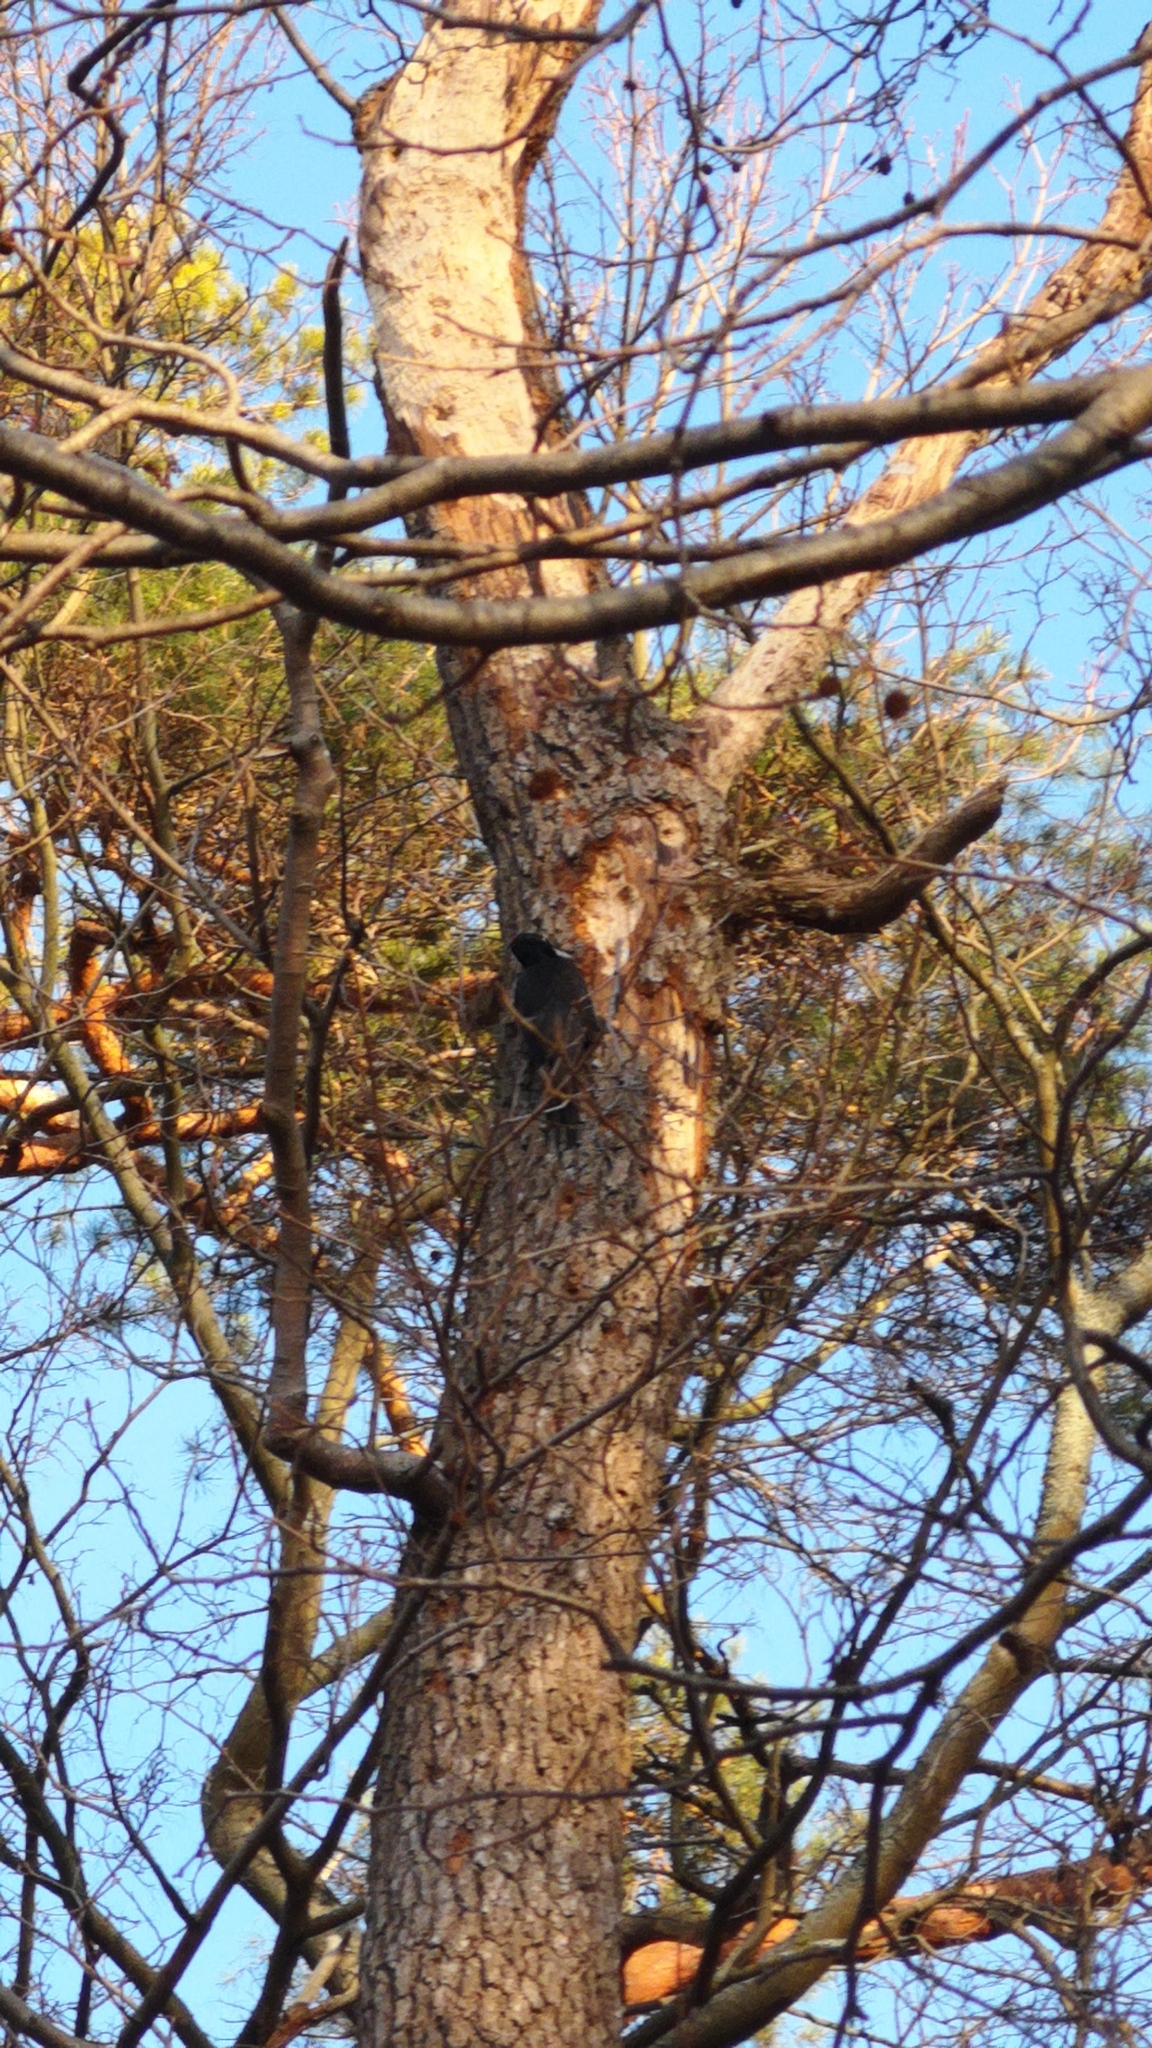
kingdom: Animalia
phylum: Chordata
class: Aves
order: Piciformes
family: Picidae
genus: Dryocopus
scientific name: Dryocopus martius
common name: Black woodpecker
